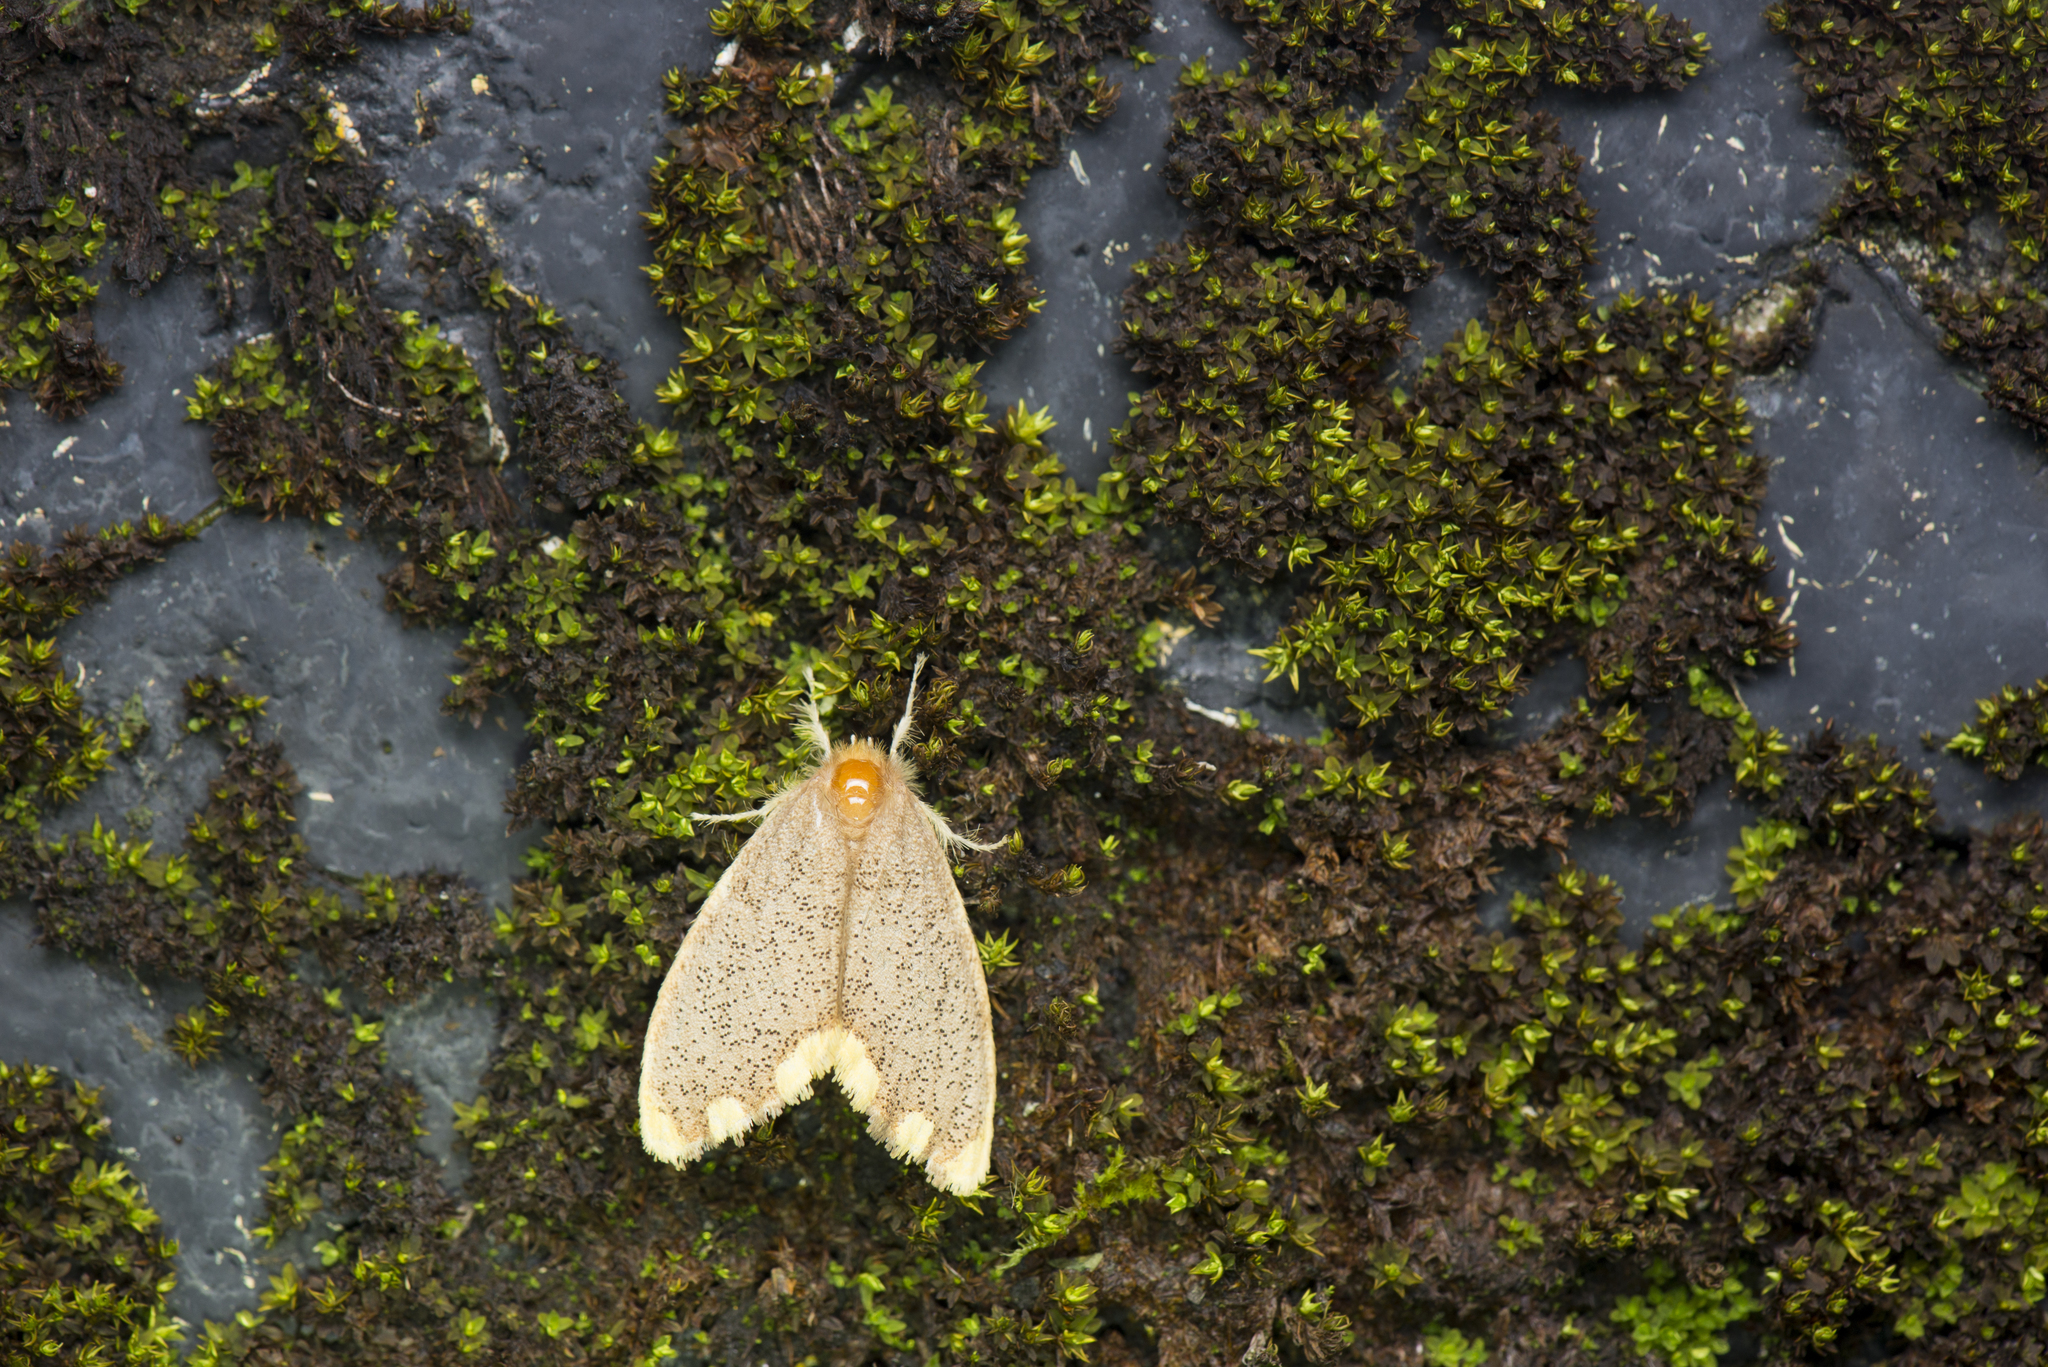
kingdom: Animalia
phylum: Arthropoda
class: Insecta
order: Lepidoptera
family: Erebidae
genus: Somena
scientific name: Somena scintillans
